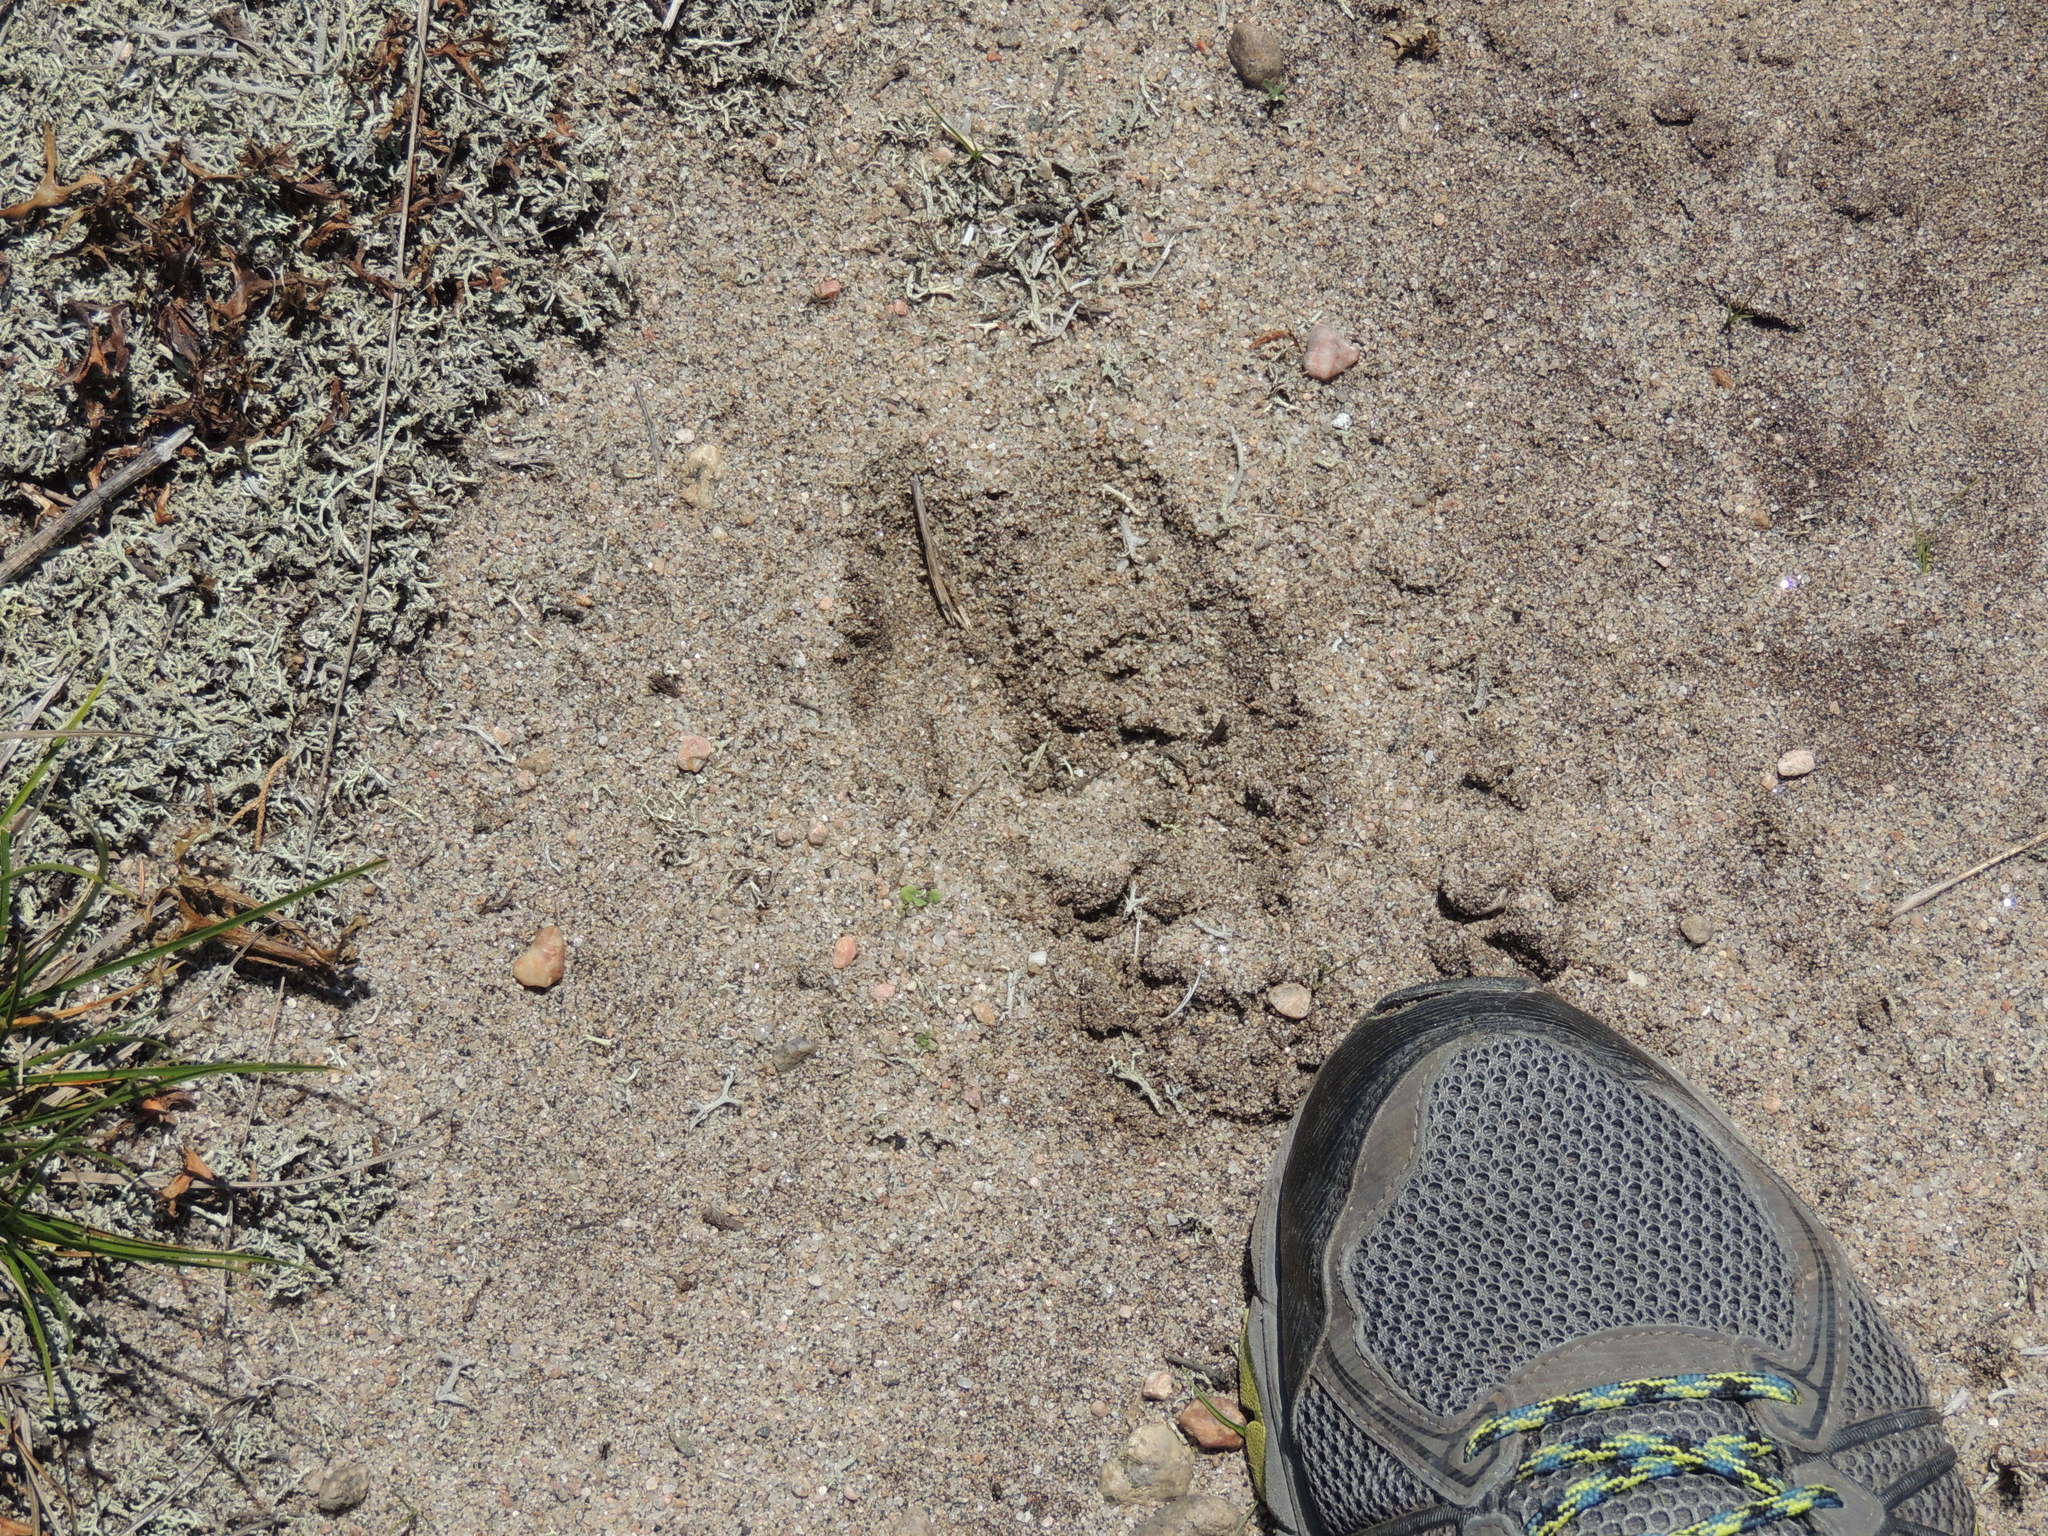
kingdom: Animalia
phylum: Chordata
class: Mammalia
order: Artiodactyla
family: Cervidae
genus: Odocoileus
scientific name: Odocoileus virginianus
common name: White-tailed deer
